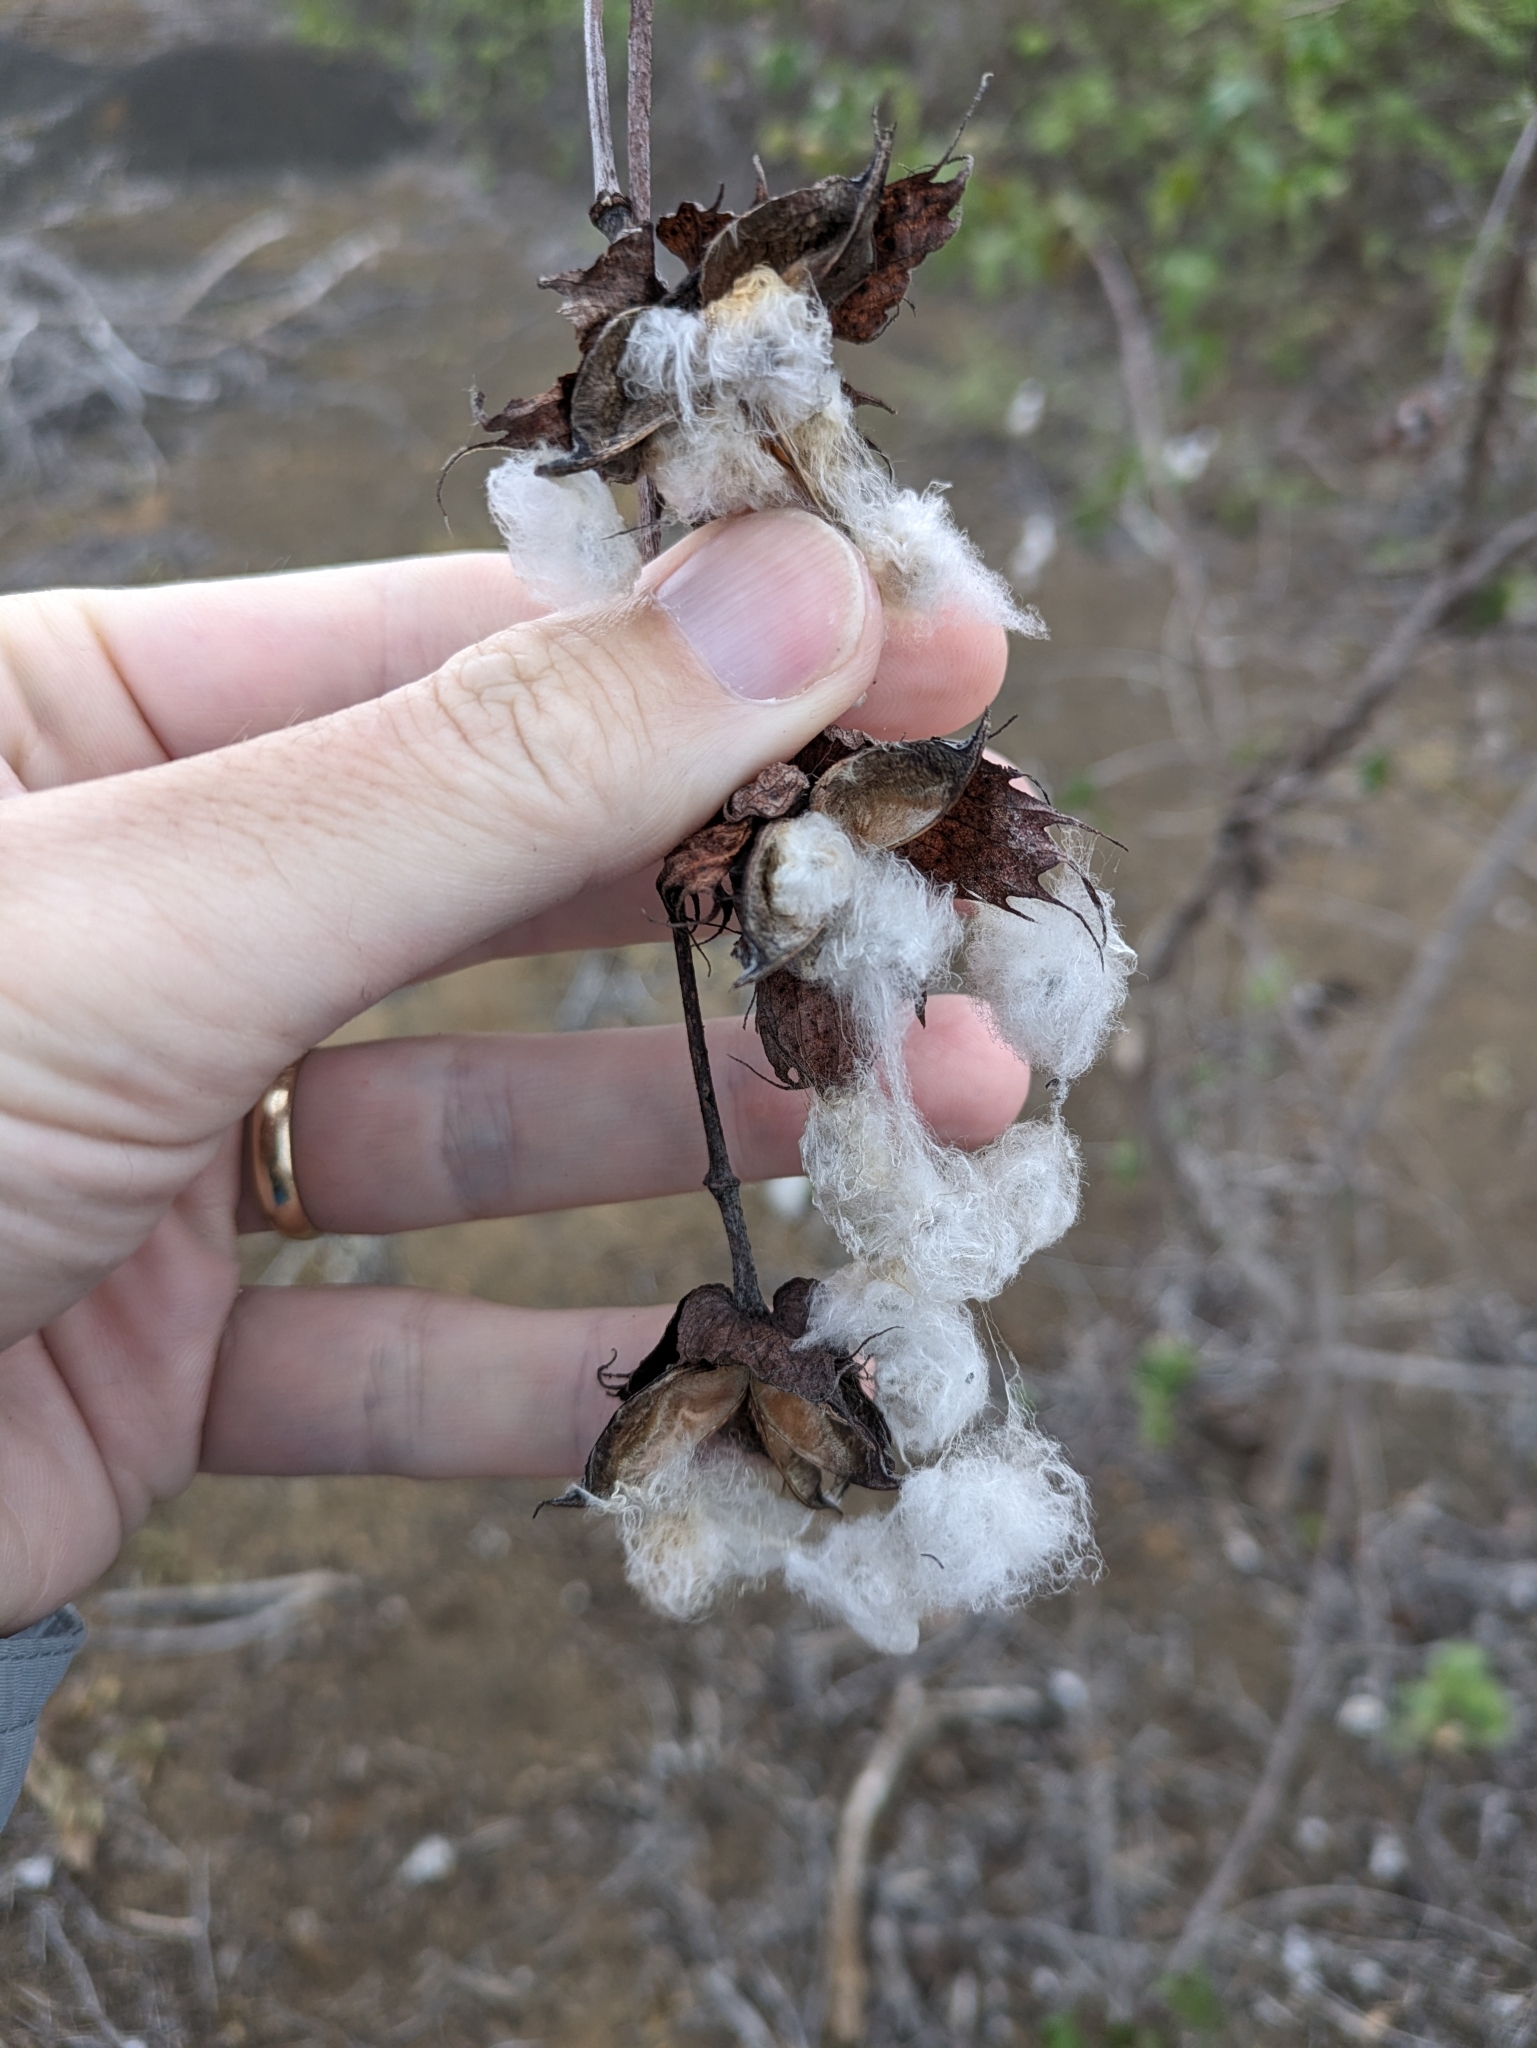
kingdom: Plantae
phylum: Tracheophyta
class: Magnoliopsida
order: Malvales
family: Malvaceae
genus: Gossypium
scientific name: Gossypium darwinii
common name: Darwin's cotton
